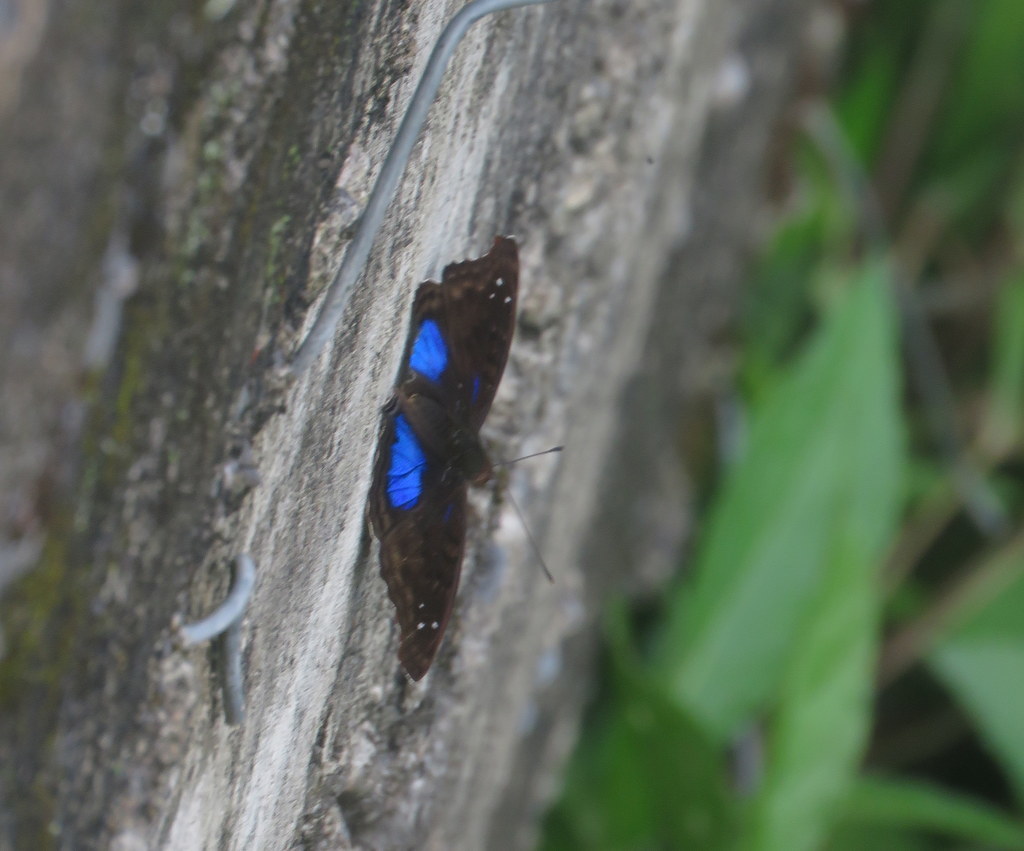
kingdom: Animalia
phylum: Arthropoda
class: Insecta
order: Lepidoptera
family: Nymphalidae
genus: Doxocopa
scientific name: Doxocopa cyane
